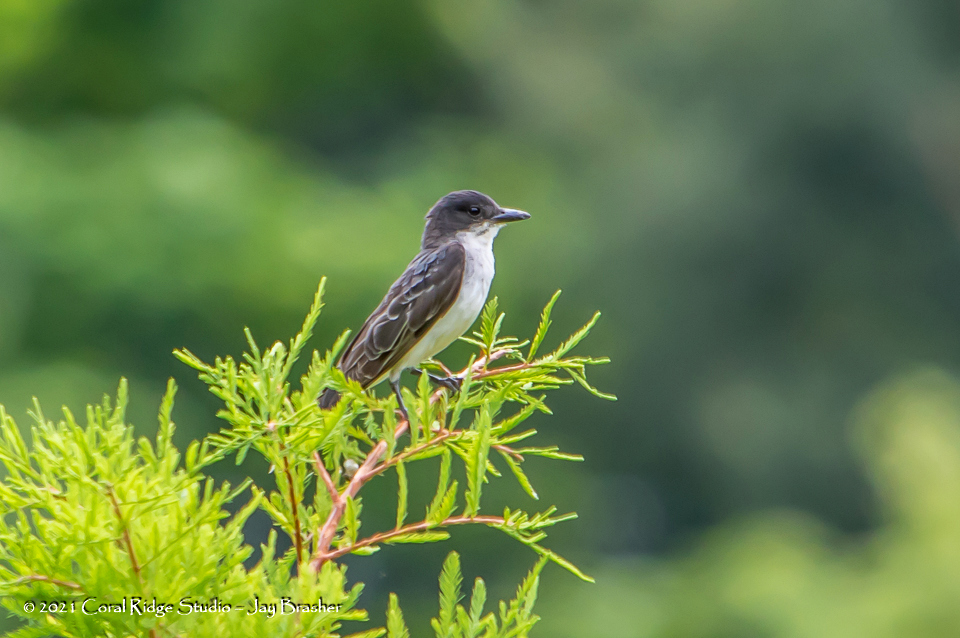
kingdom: Animalia
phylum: Chordata
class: Aves
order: Passeriformes
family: Tyrannidae
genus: Tyrannus
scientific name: Tyrannus tyrannus
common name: Eastern kingbird
